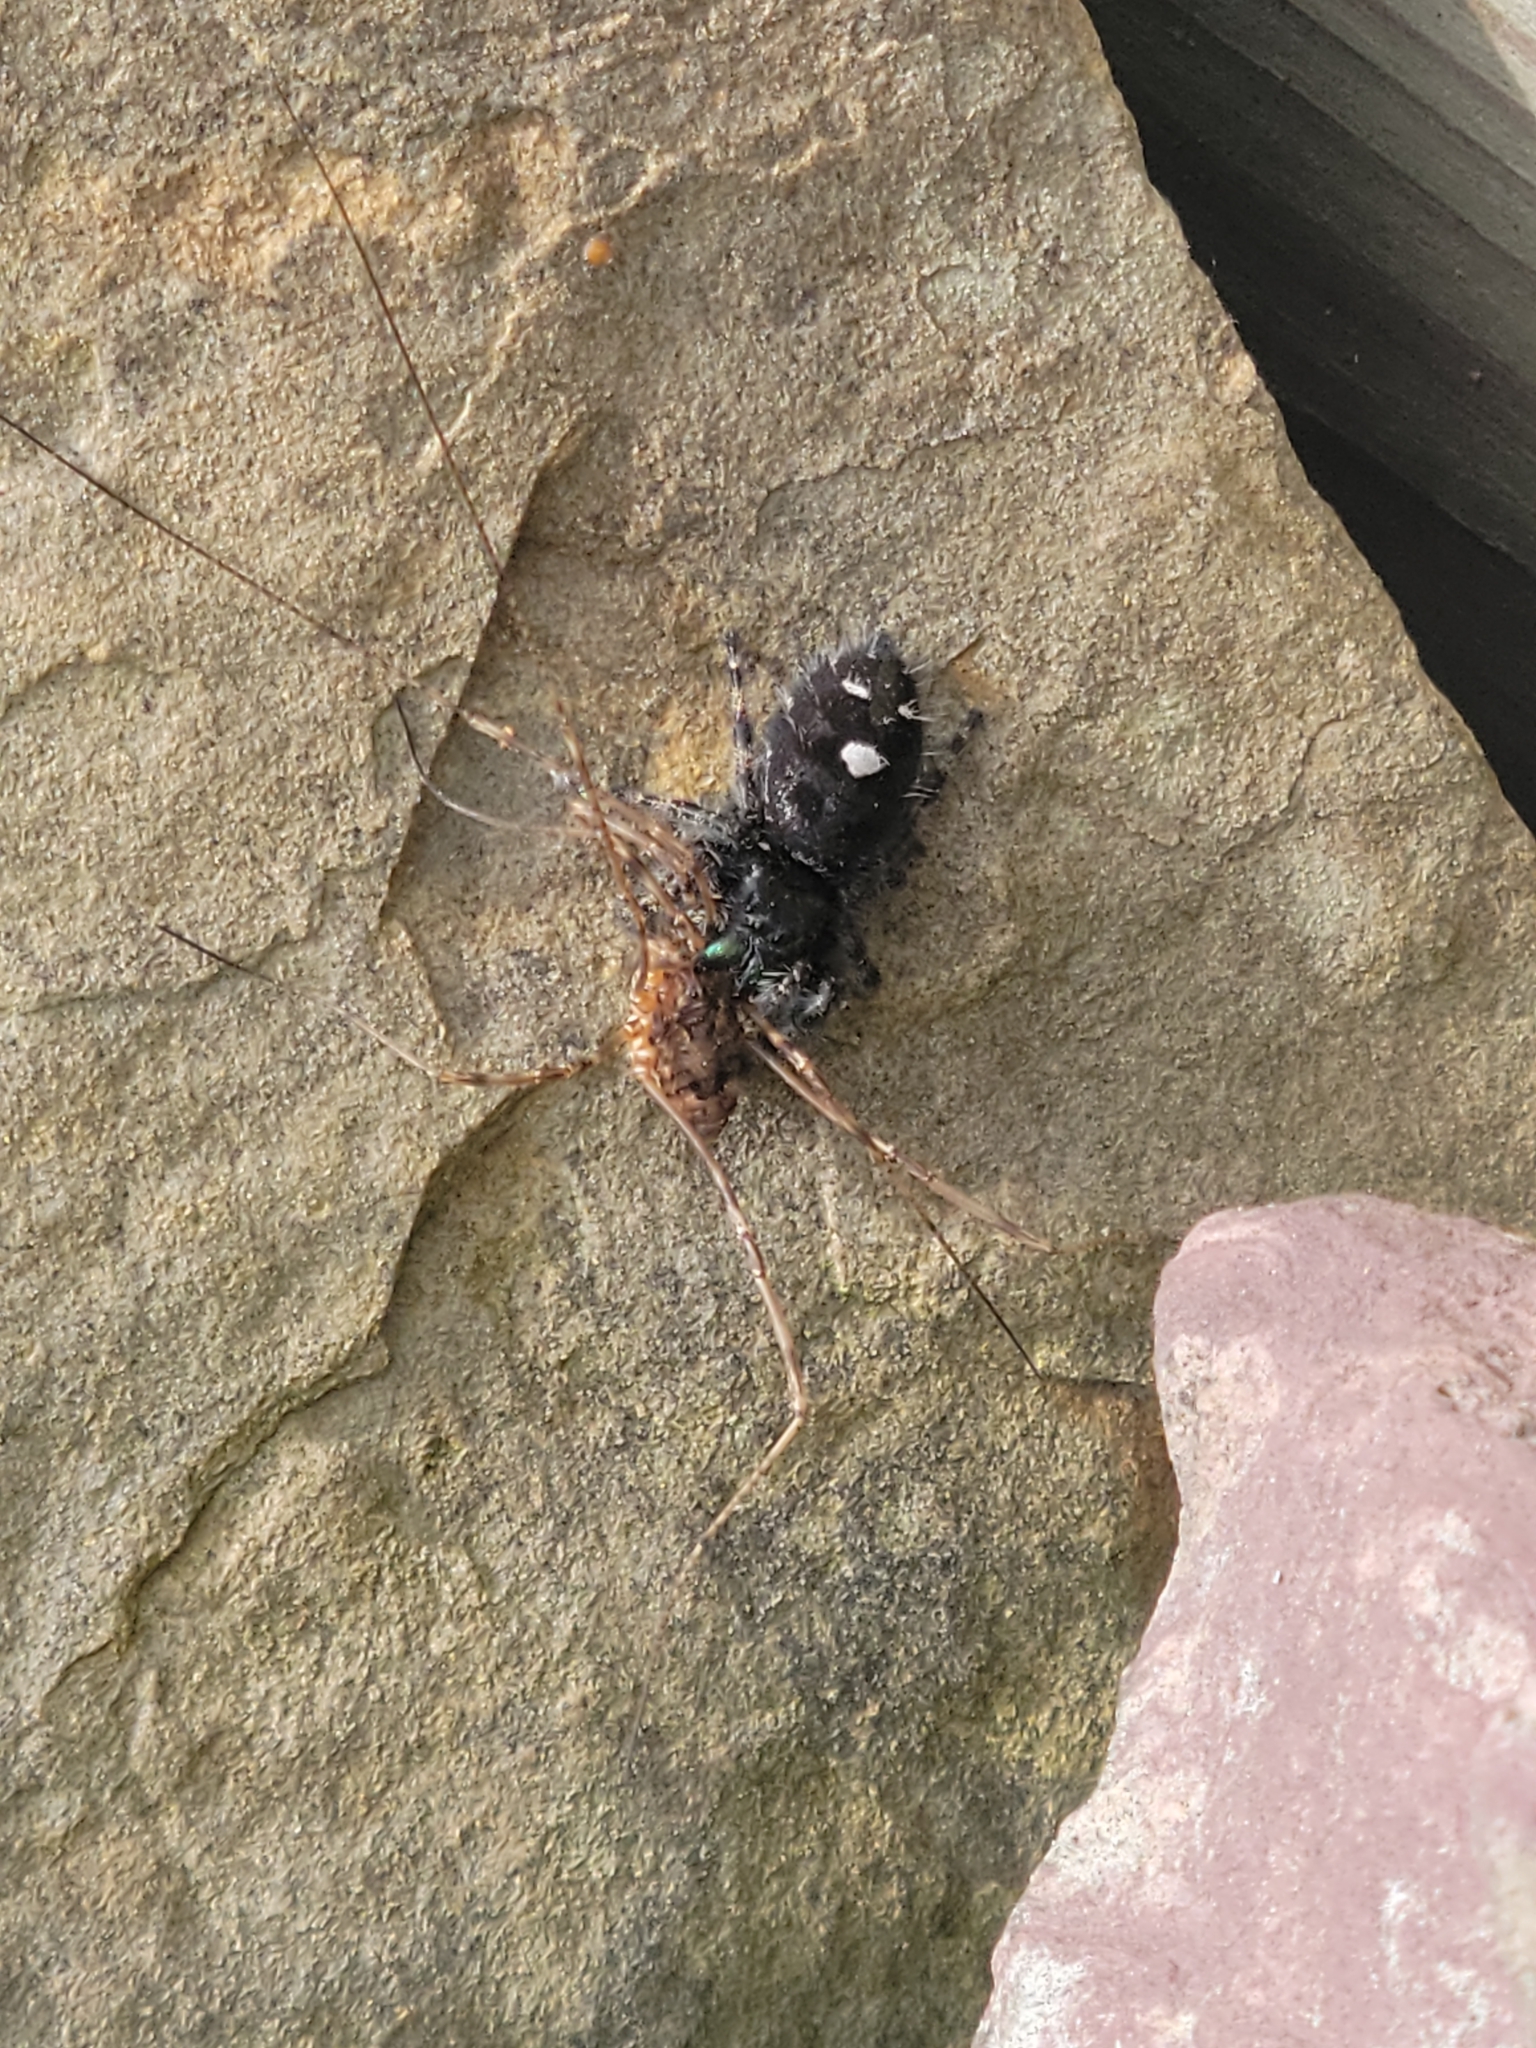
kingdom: Animalia
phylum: Arthropoda
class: Arachnida
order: Araneae
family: Salticidae
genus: Phidippus
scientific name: Phidippus audax
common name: Bold jumper
